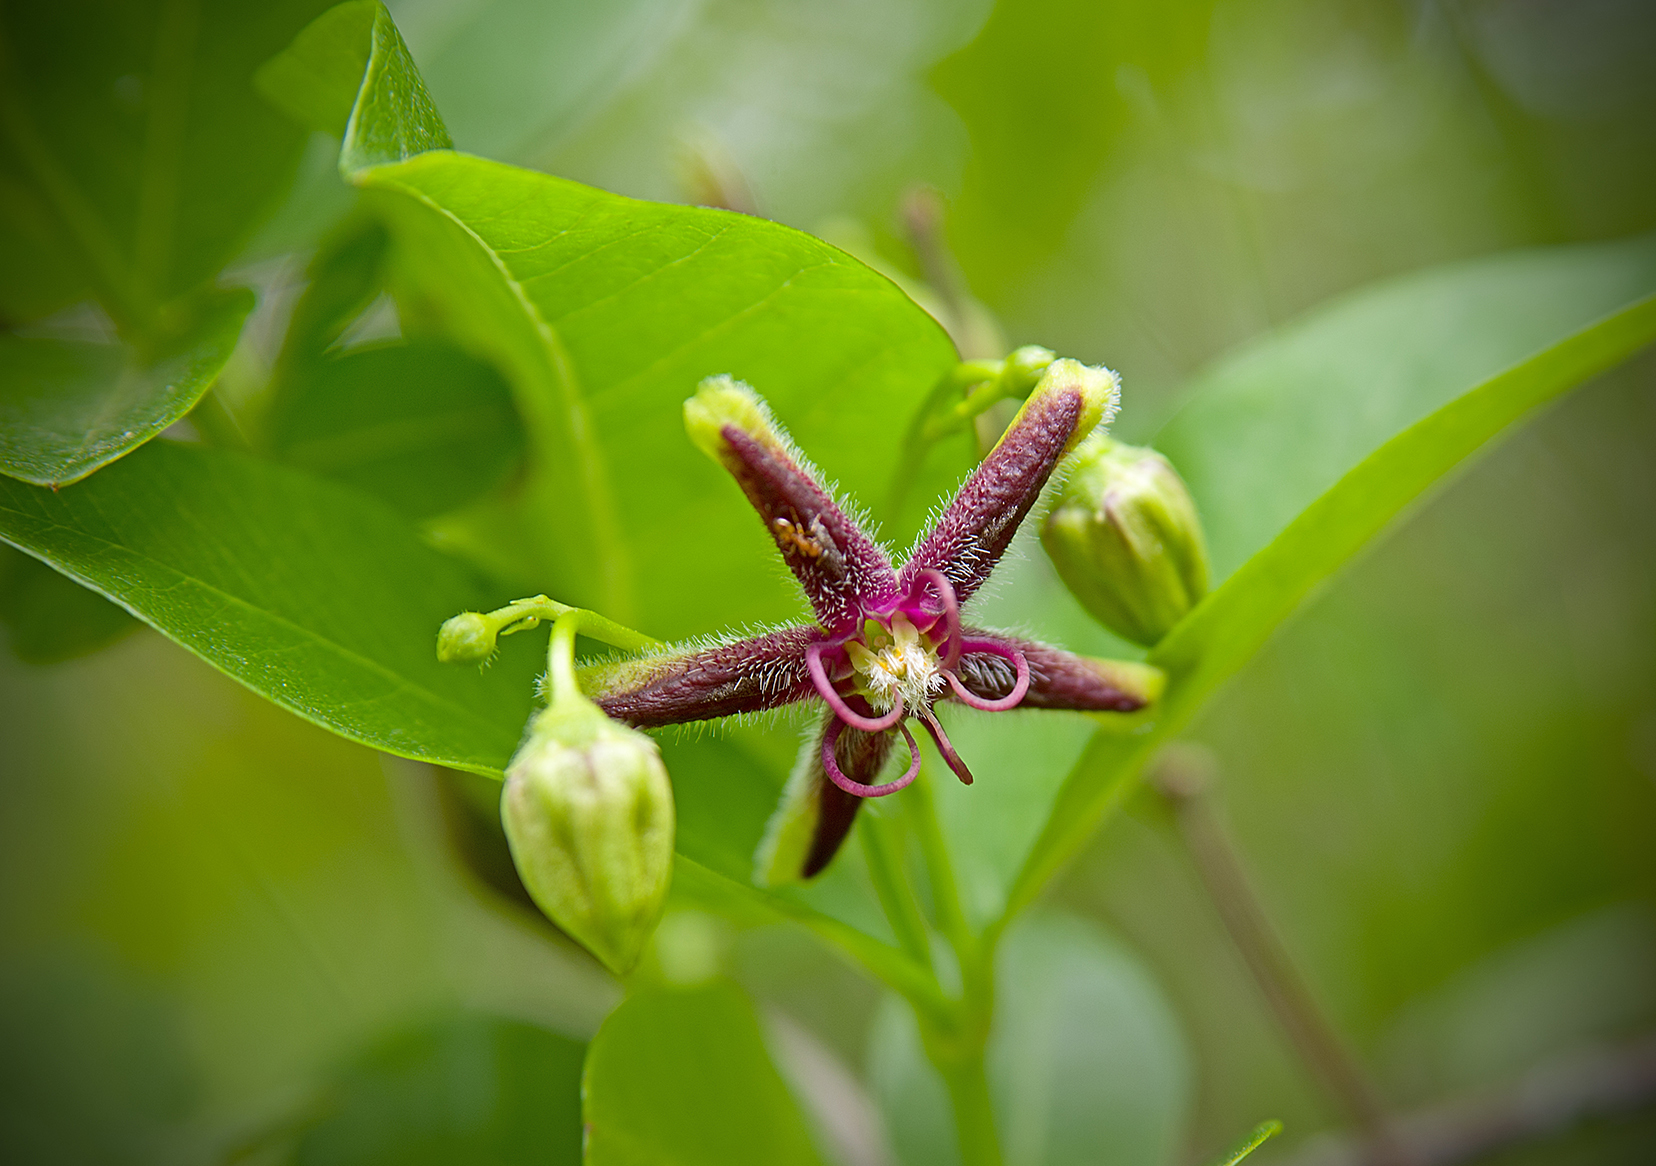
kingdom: Plantae
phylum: Tracheophyta
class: Magnoliopsida
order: Gentianales
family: Apocynaceae
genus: Periploca
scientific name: Periploca graeca
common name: Silkvine
